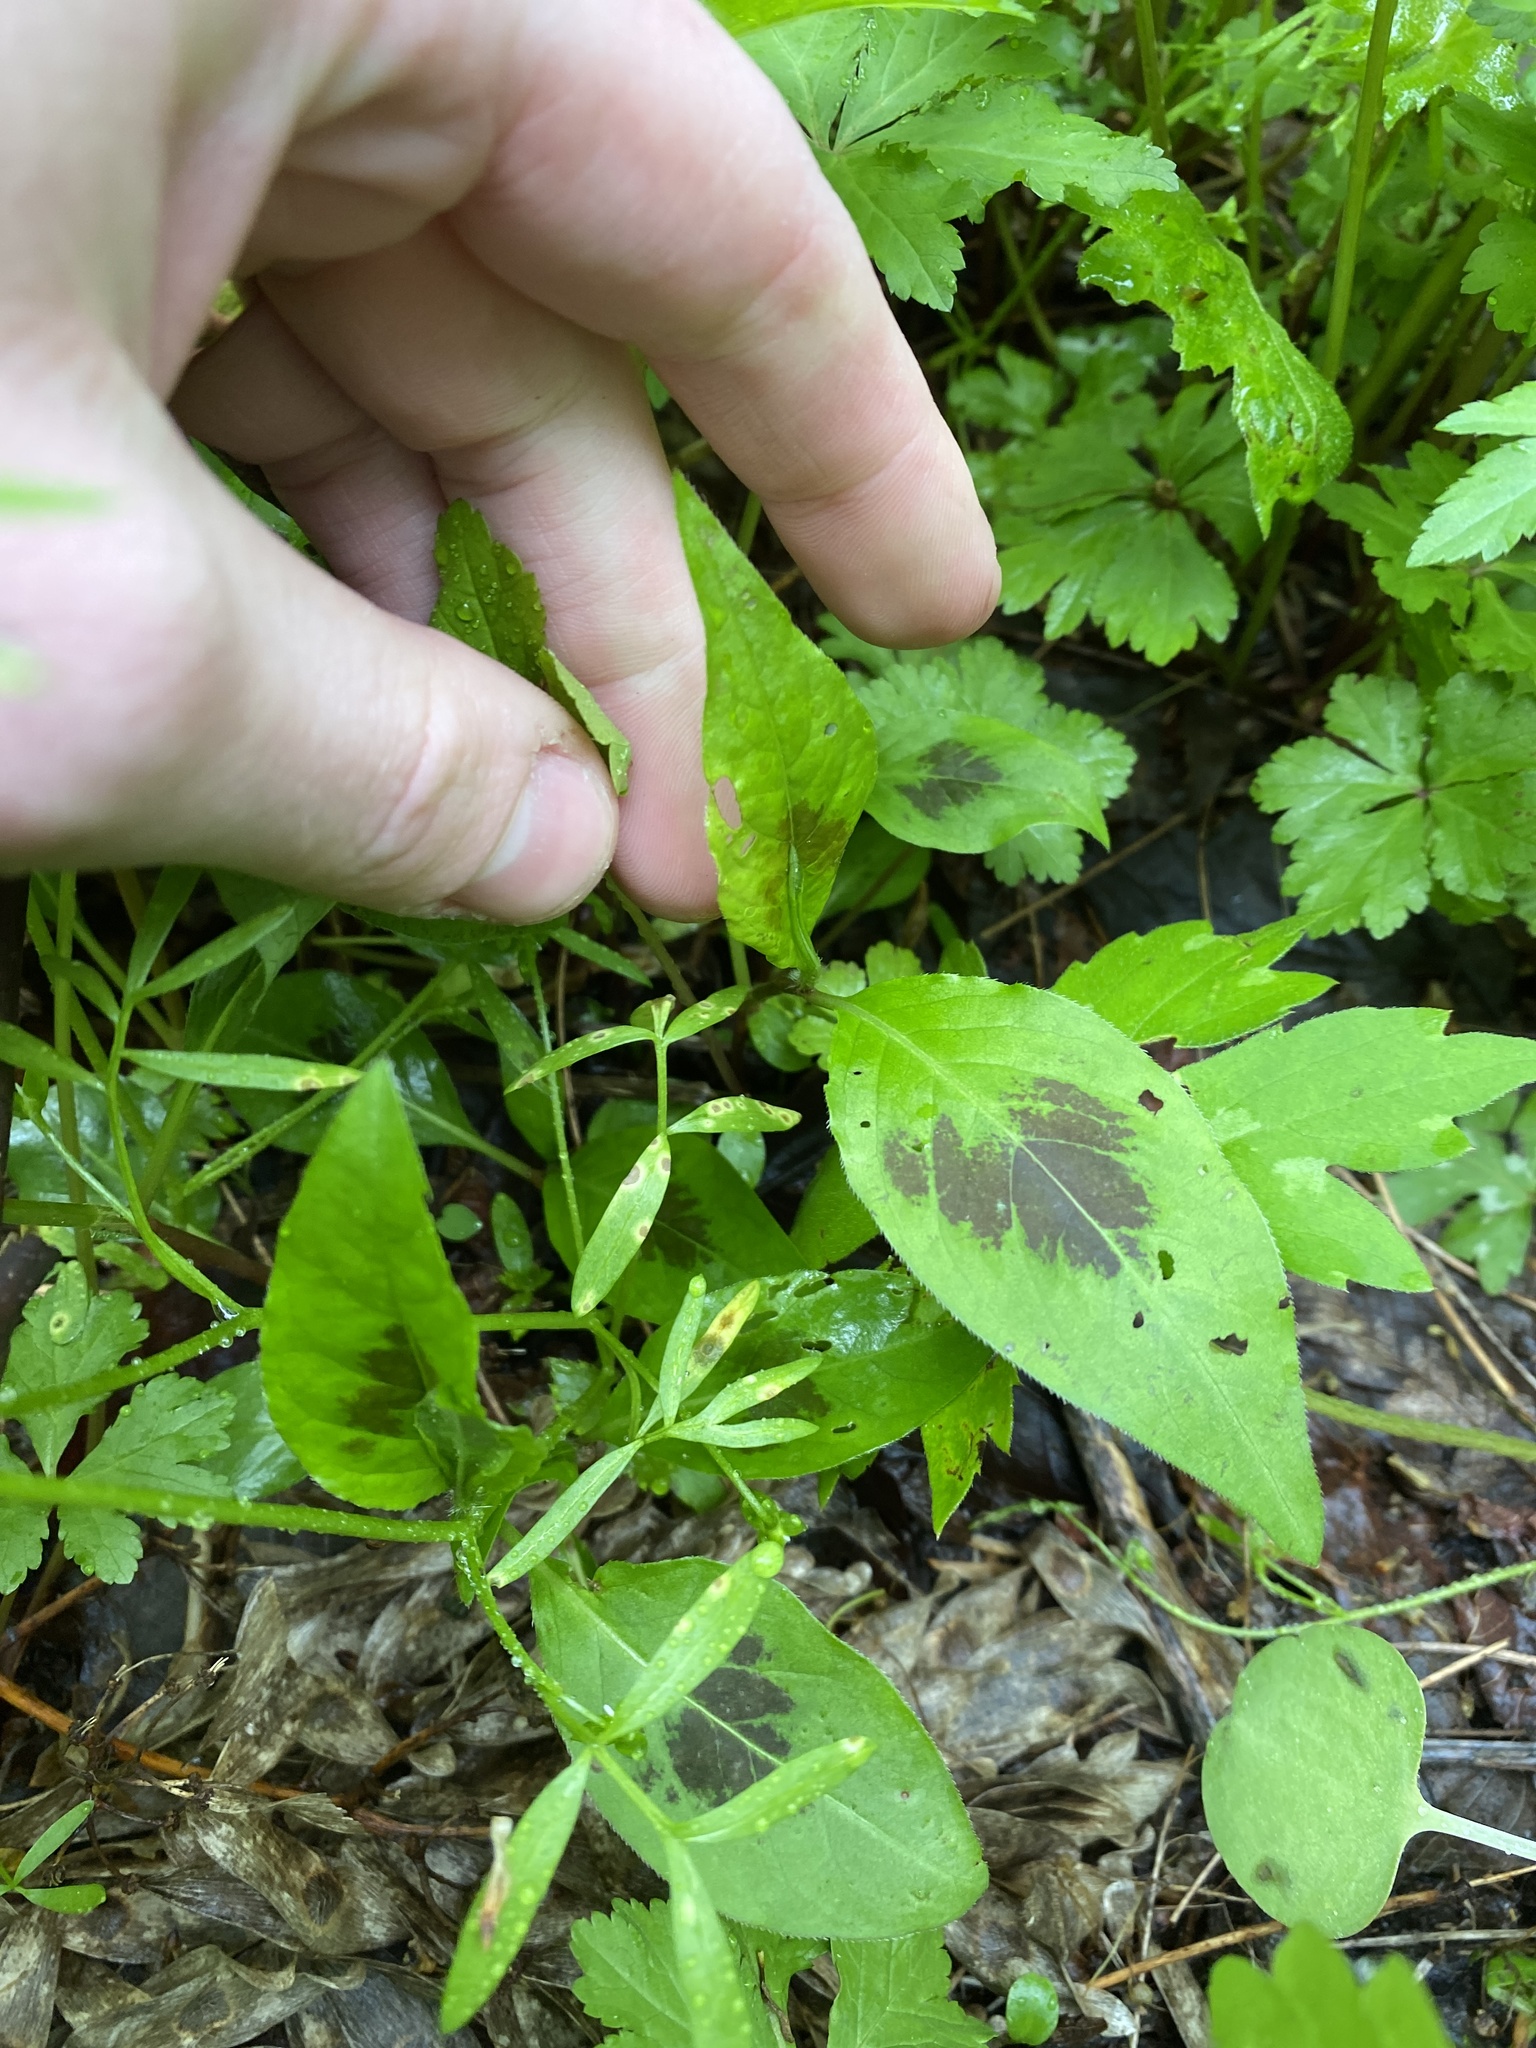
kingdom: Plantae
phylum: Tracheophyta
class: Magnoliopsida
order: Caryophyllales
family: Polygonaceae
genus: Persicaria
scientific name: Persicaria virginiana
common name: Jumpseed
